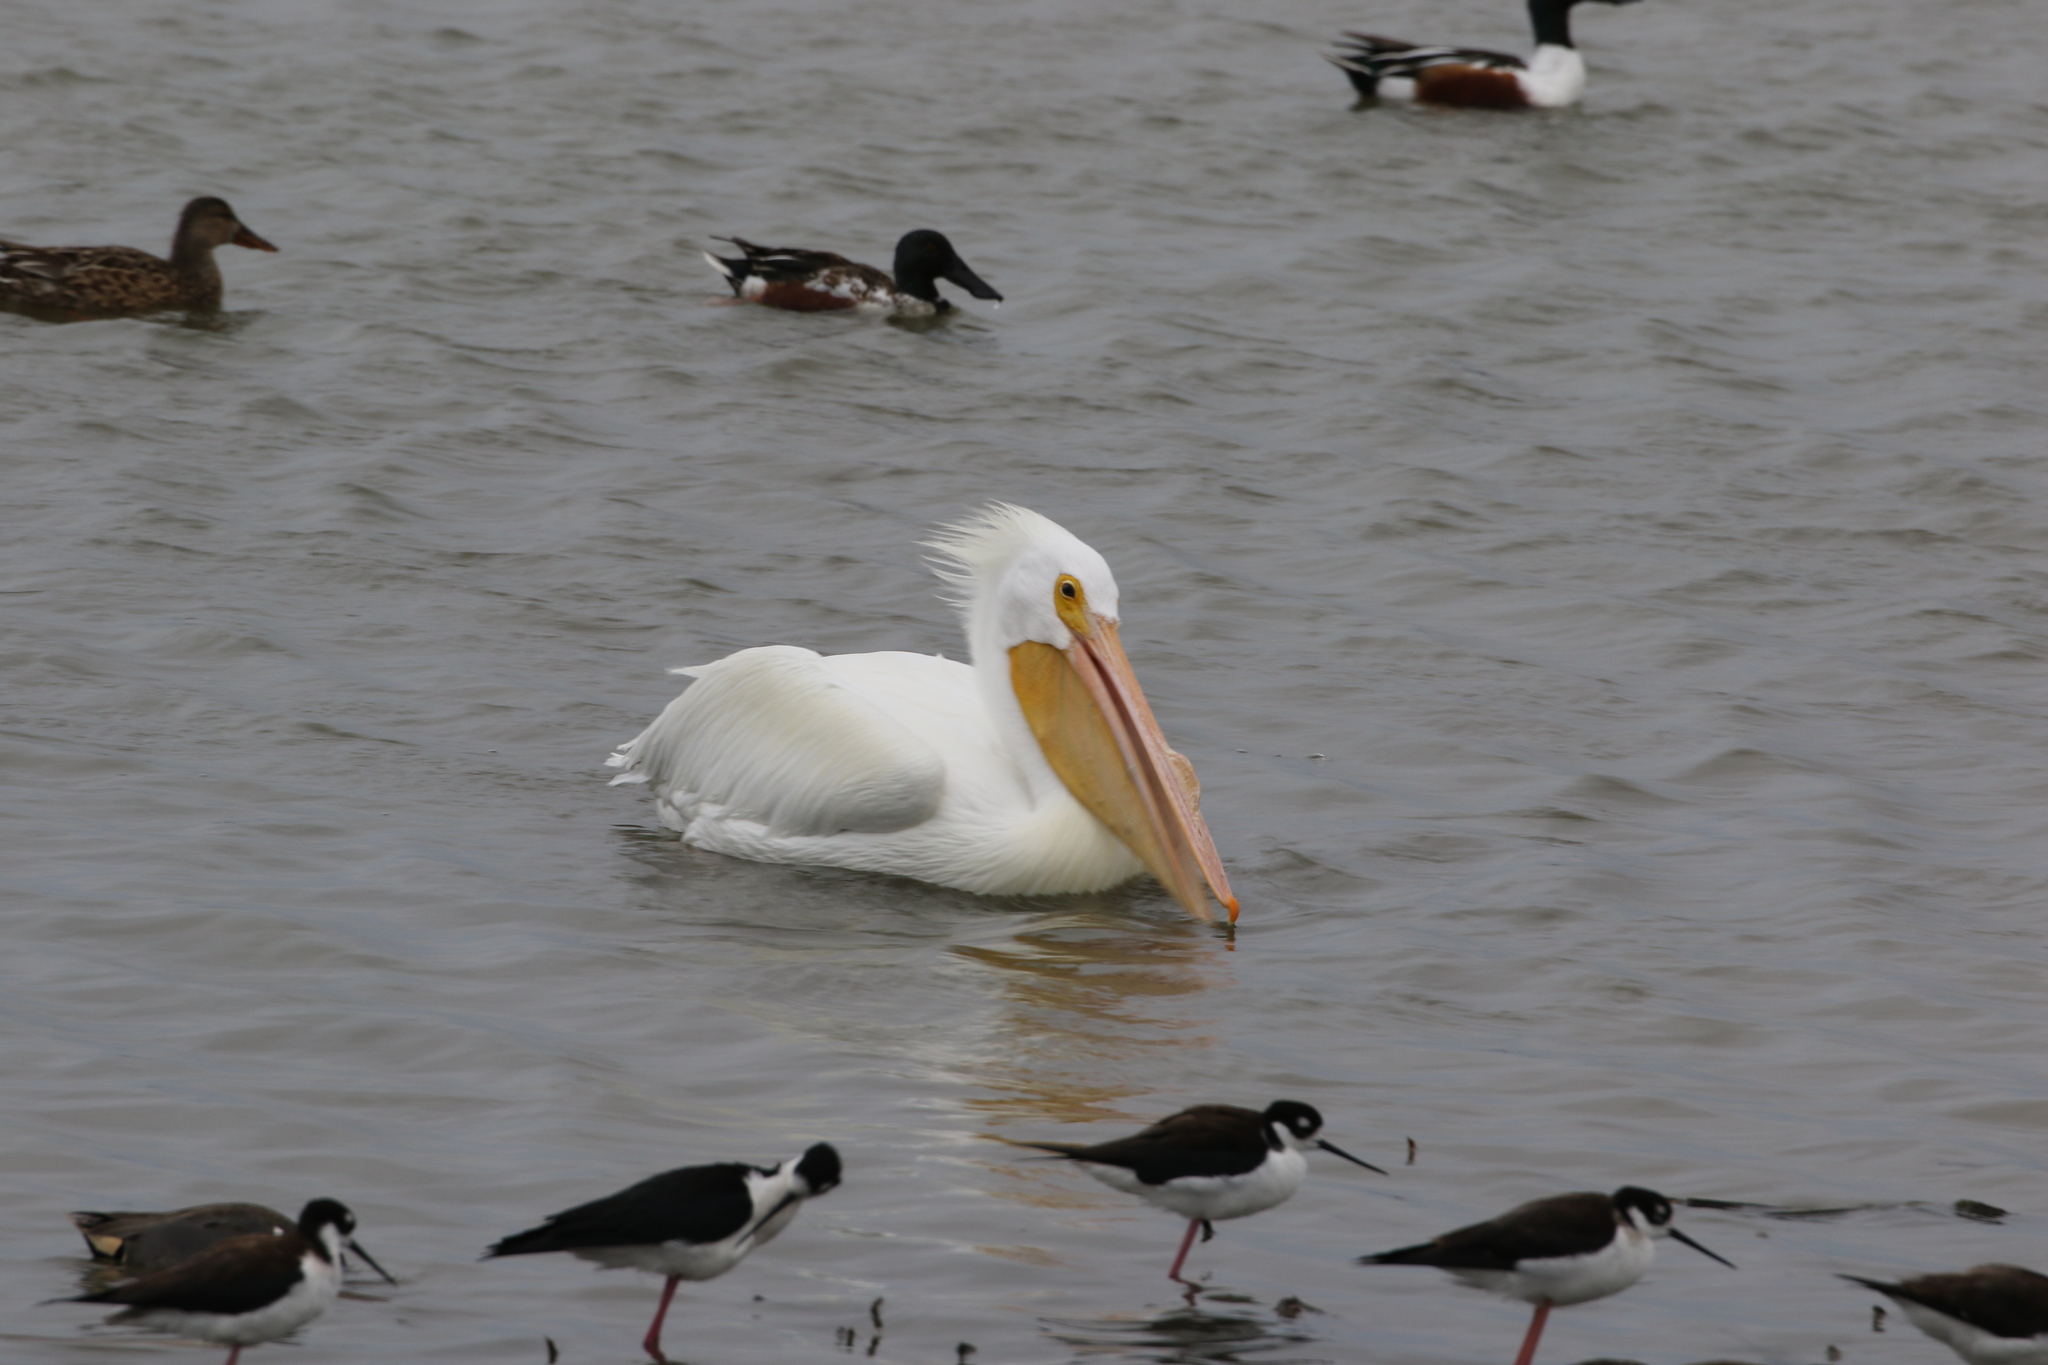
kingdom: Animalia
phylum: Chordata
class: Aves
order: Pelecaniformes
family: Pelecanidae
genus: Pelecanus
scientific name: Pelecanus erythrorhynchos
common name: American white pelican
